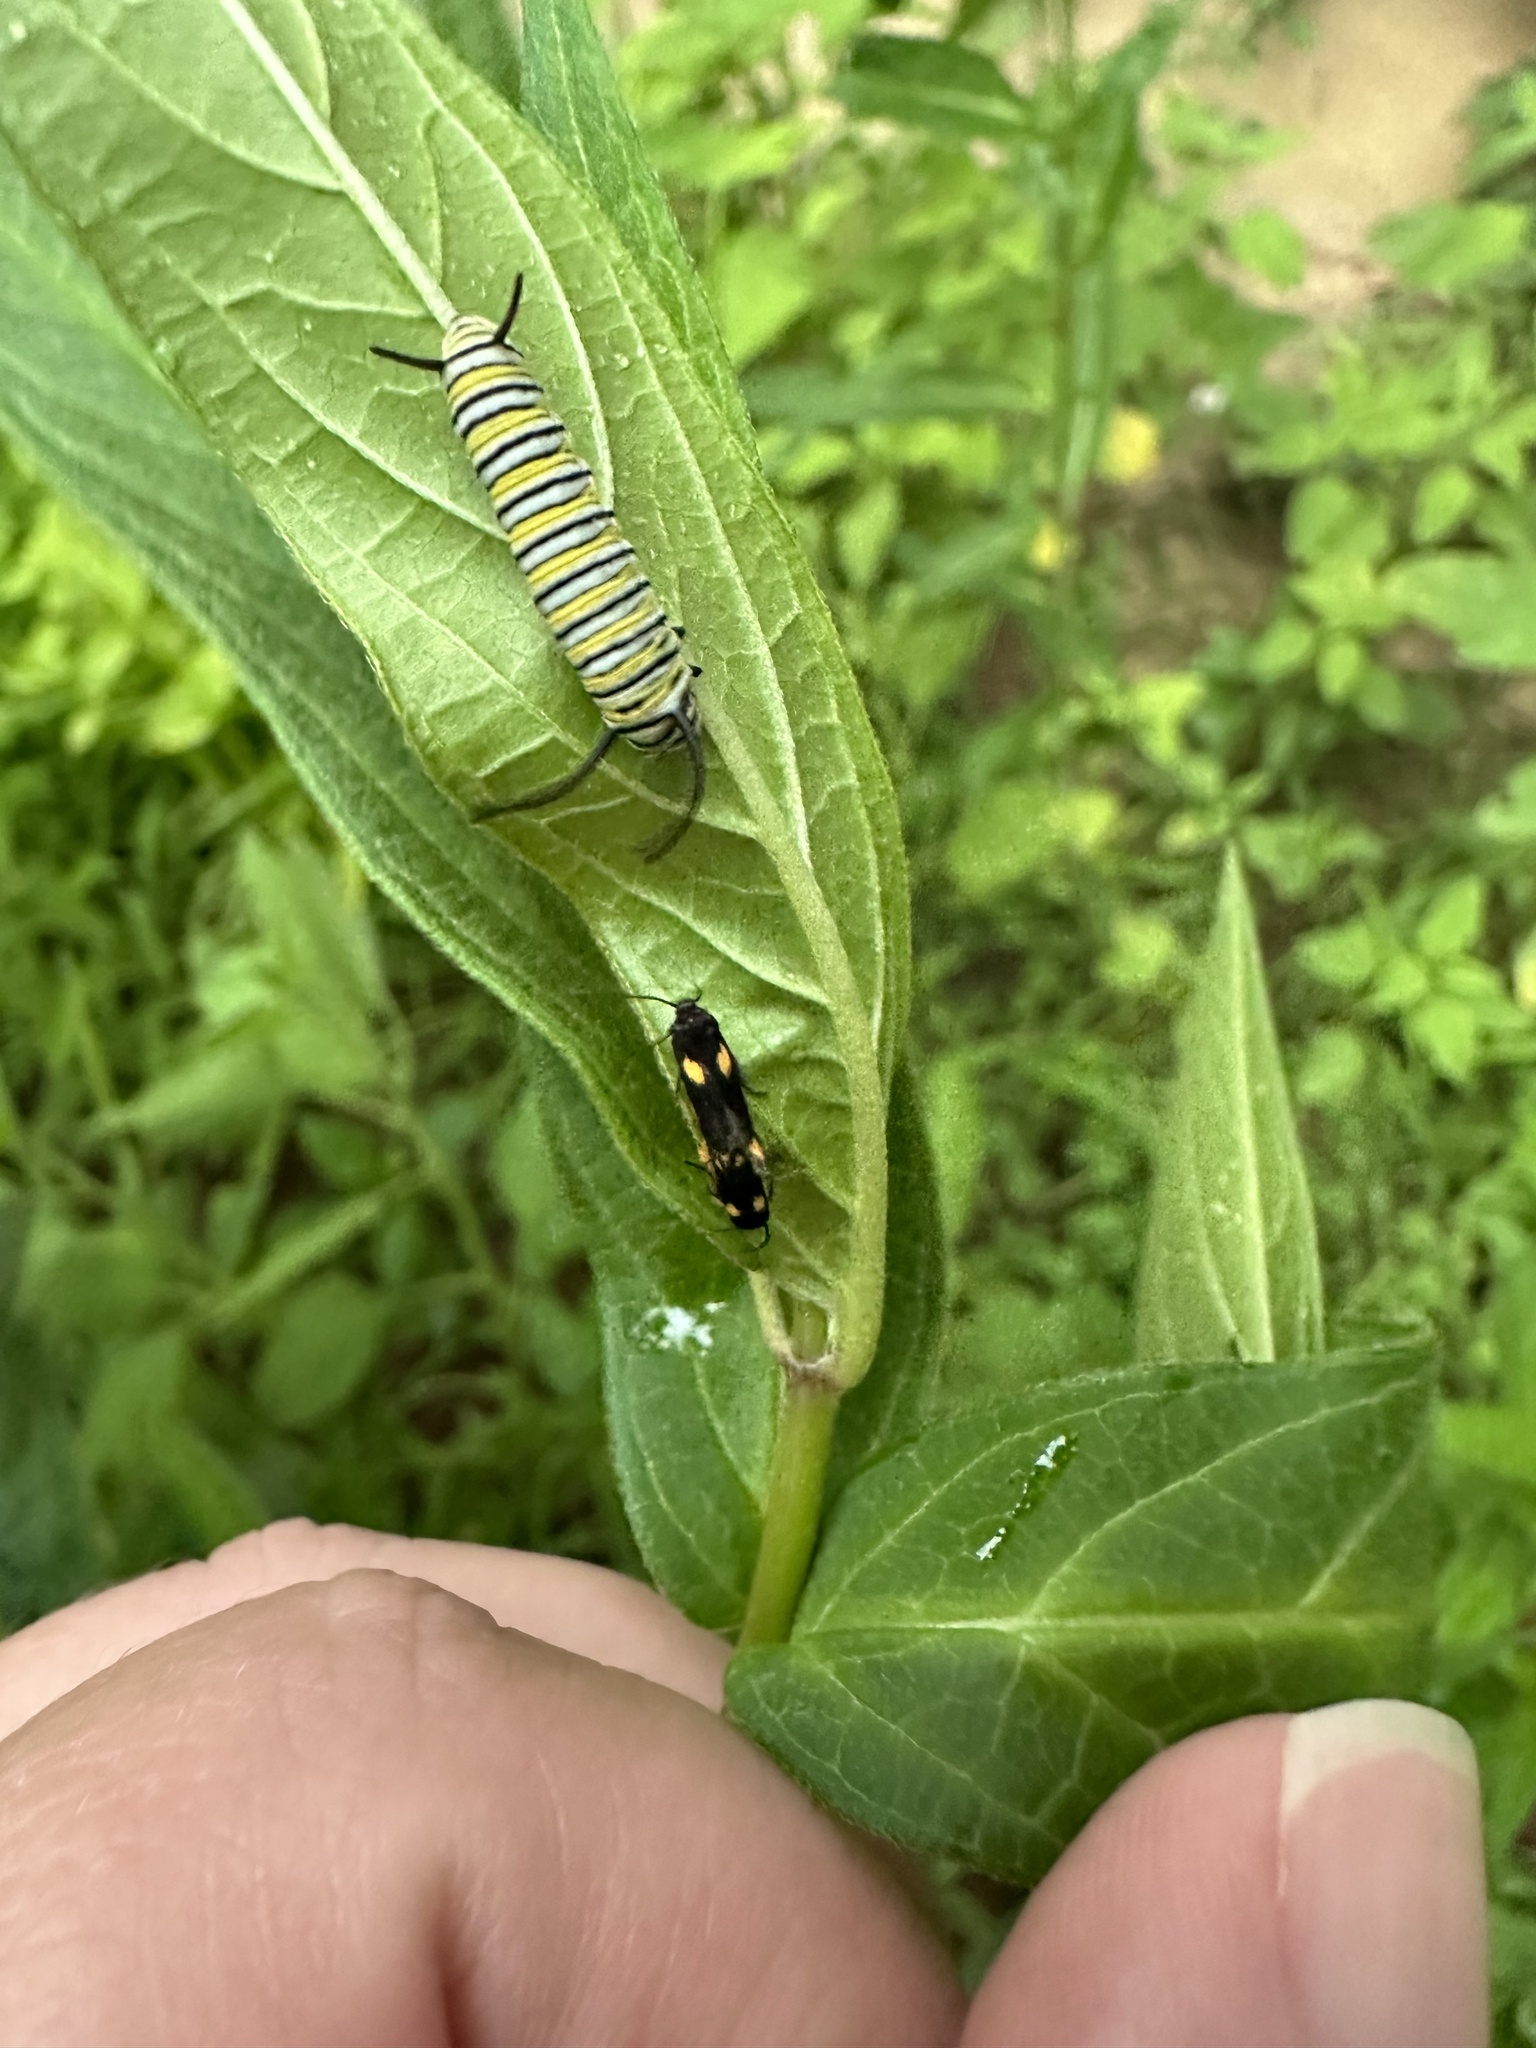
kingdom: Animalia
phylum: Arthropoda
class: Insecta
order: Lepidoptera
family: Scythrididae
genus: Scythris
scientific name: Scythris sinensis
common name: Kentish owlet
